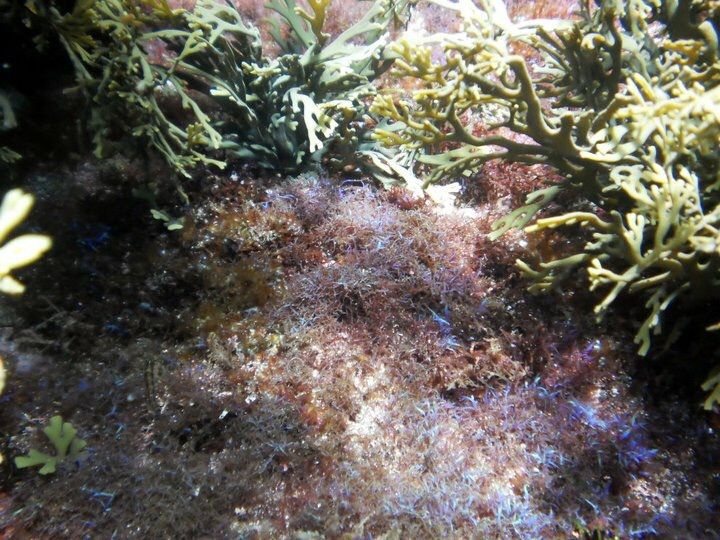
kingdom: Plantae
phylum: Rhodophyta
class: Florideophyceae
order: Rhodymeniales
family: Champiaceae
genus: Champia
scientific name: Champia laingii
